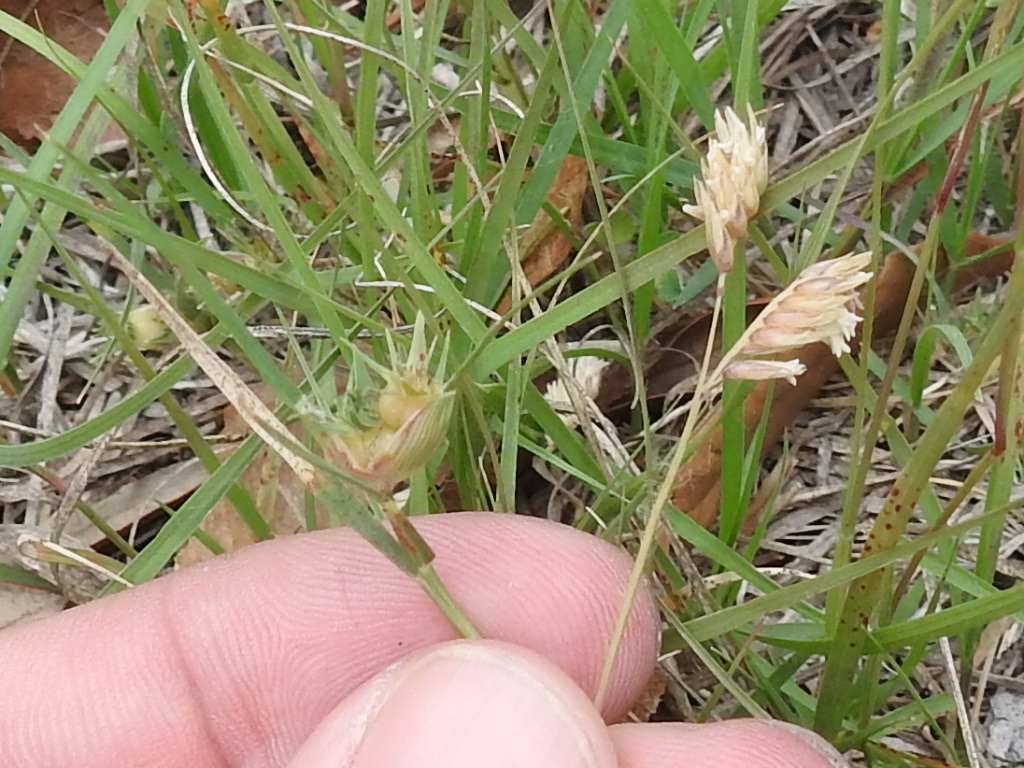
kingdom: Plantae
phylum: Tracheophyta
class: Liliopsida
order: Poales
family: Poaceae
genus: Bouteloua
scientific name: Bouteloua dactyloides
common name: Buffalo grass
